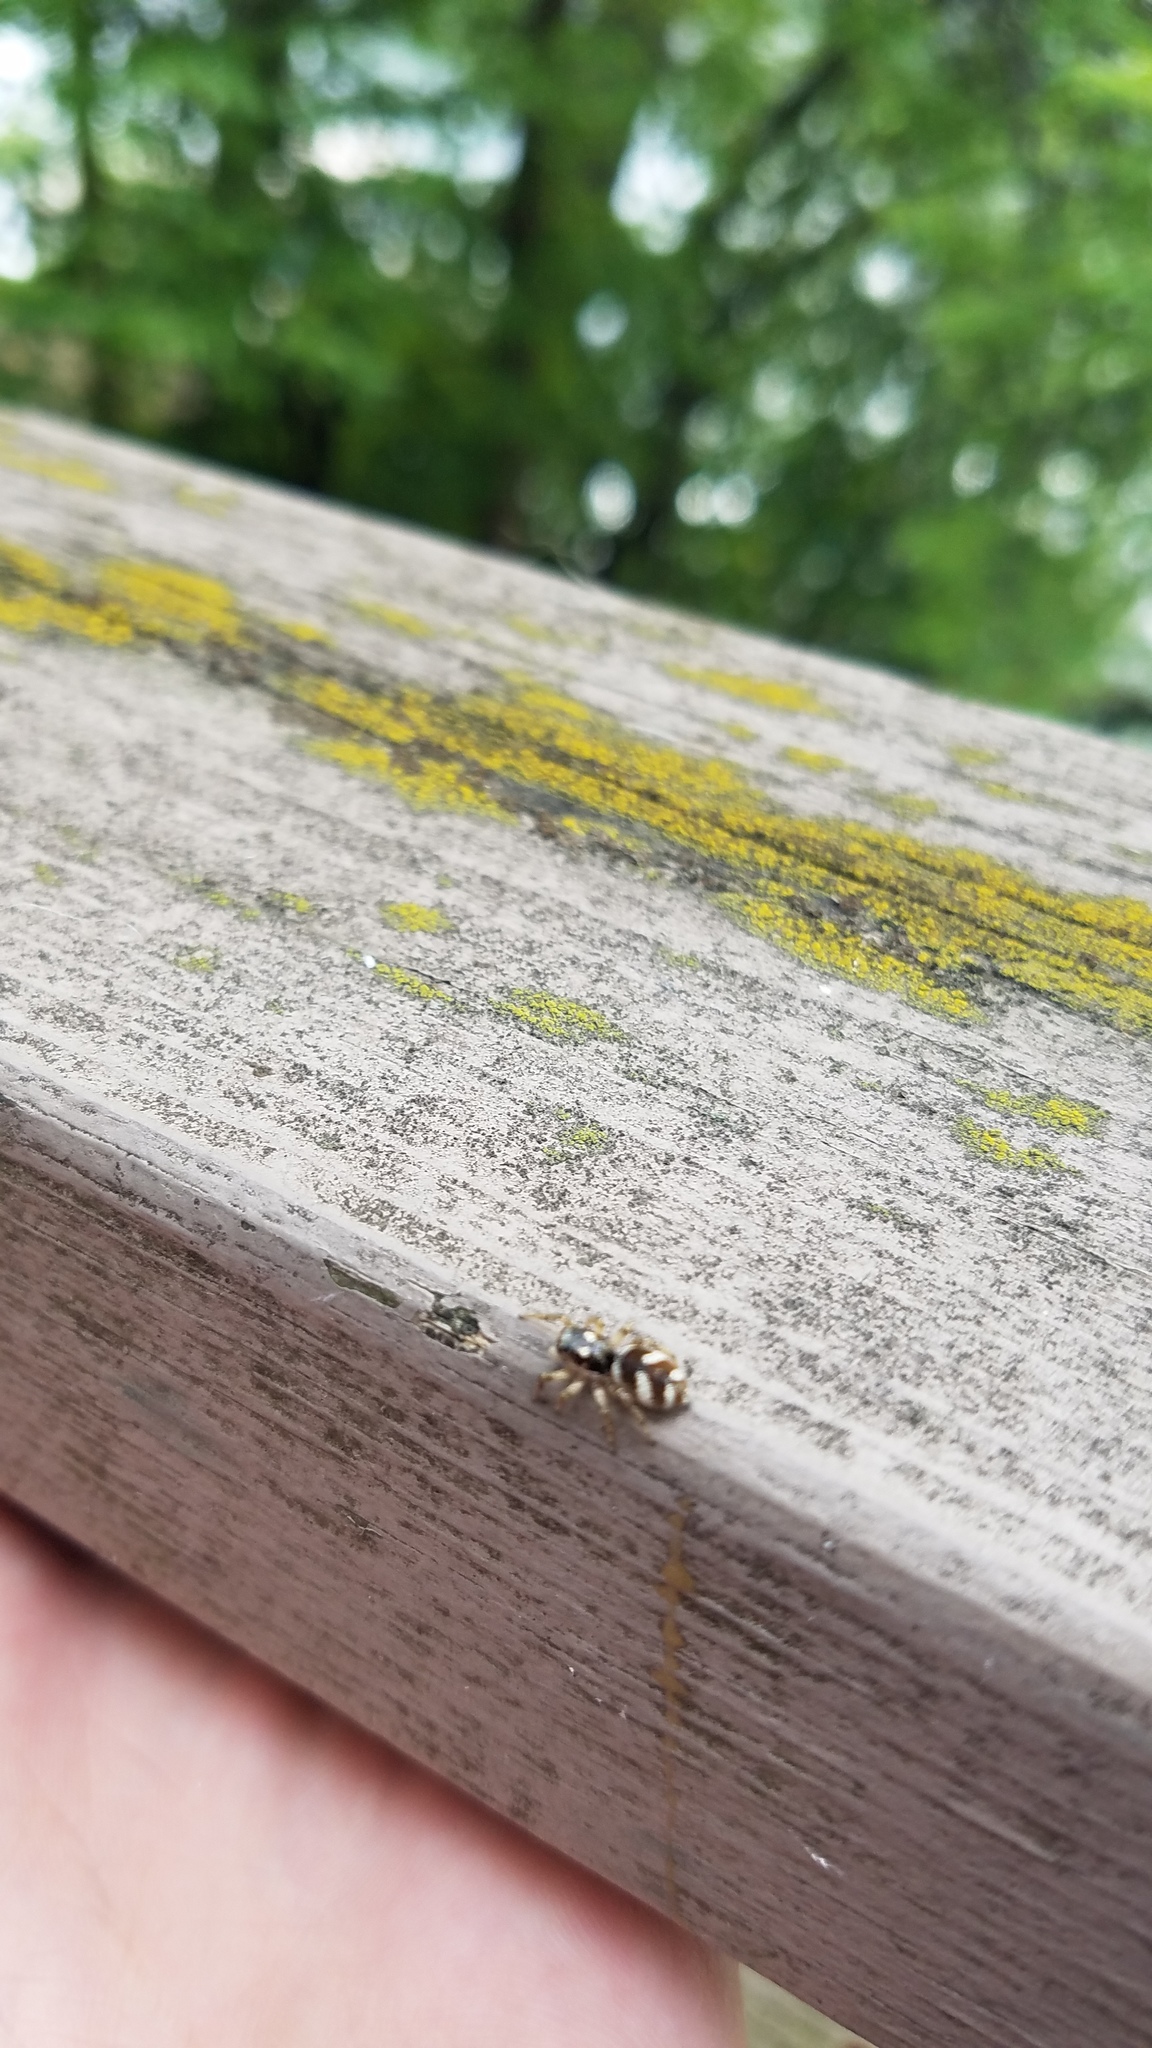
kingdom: Animalia
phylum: Arthropoda
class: Arachnida
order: Araneae
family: Salticidae
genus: Salticus
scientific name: Salticus scenicus
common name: Zebra jumper
